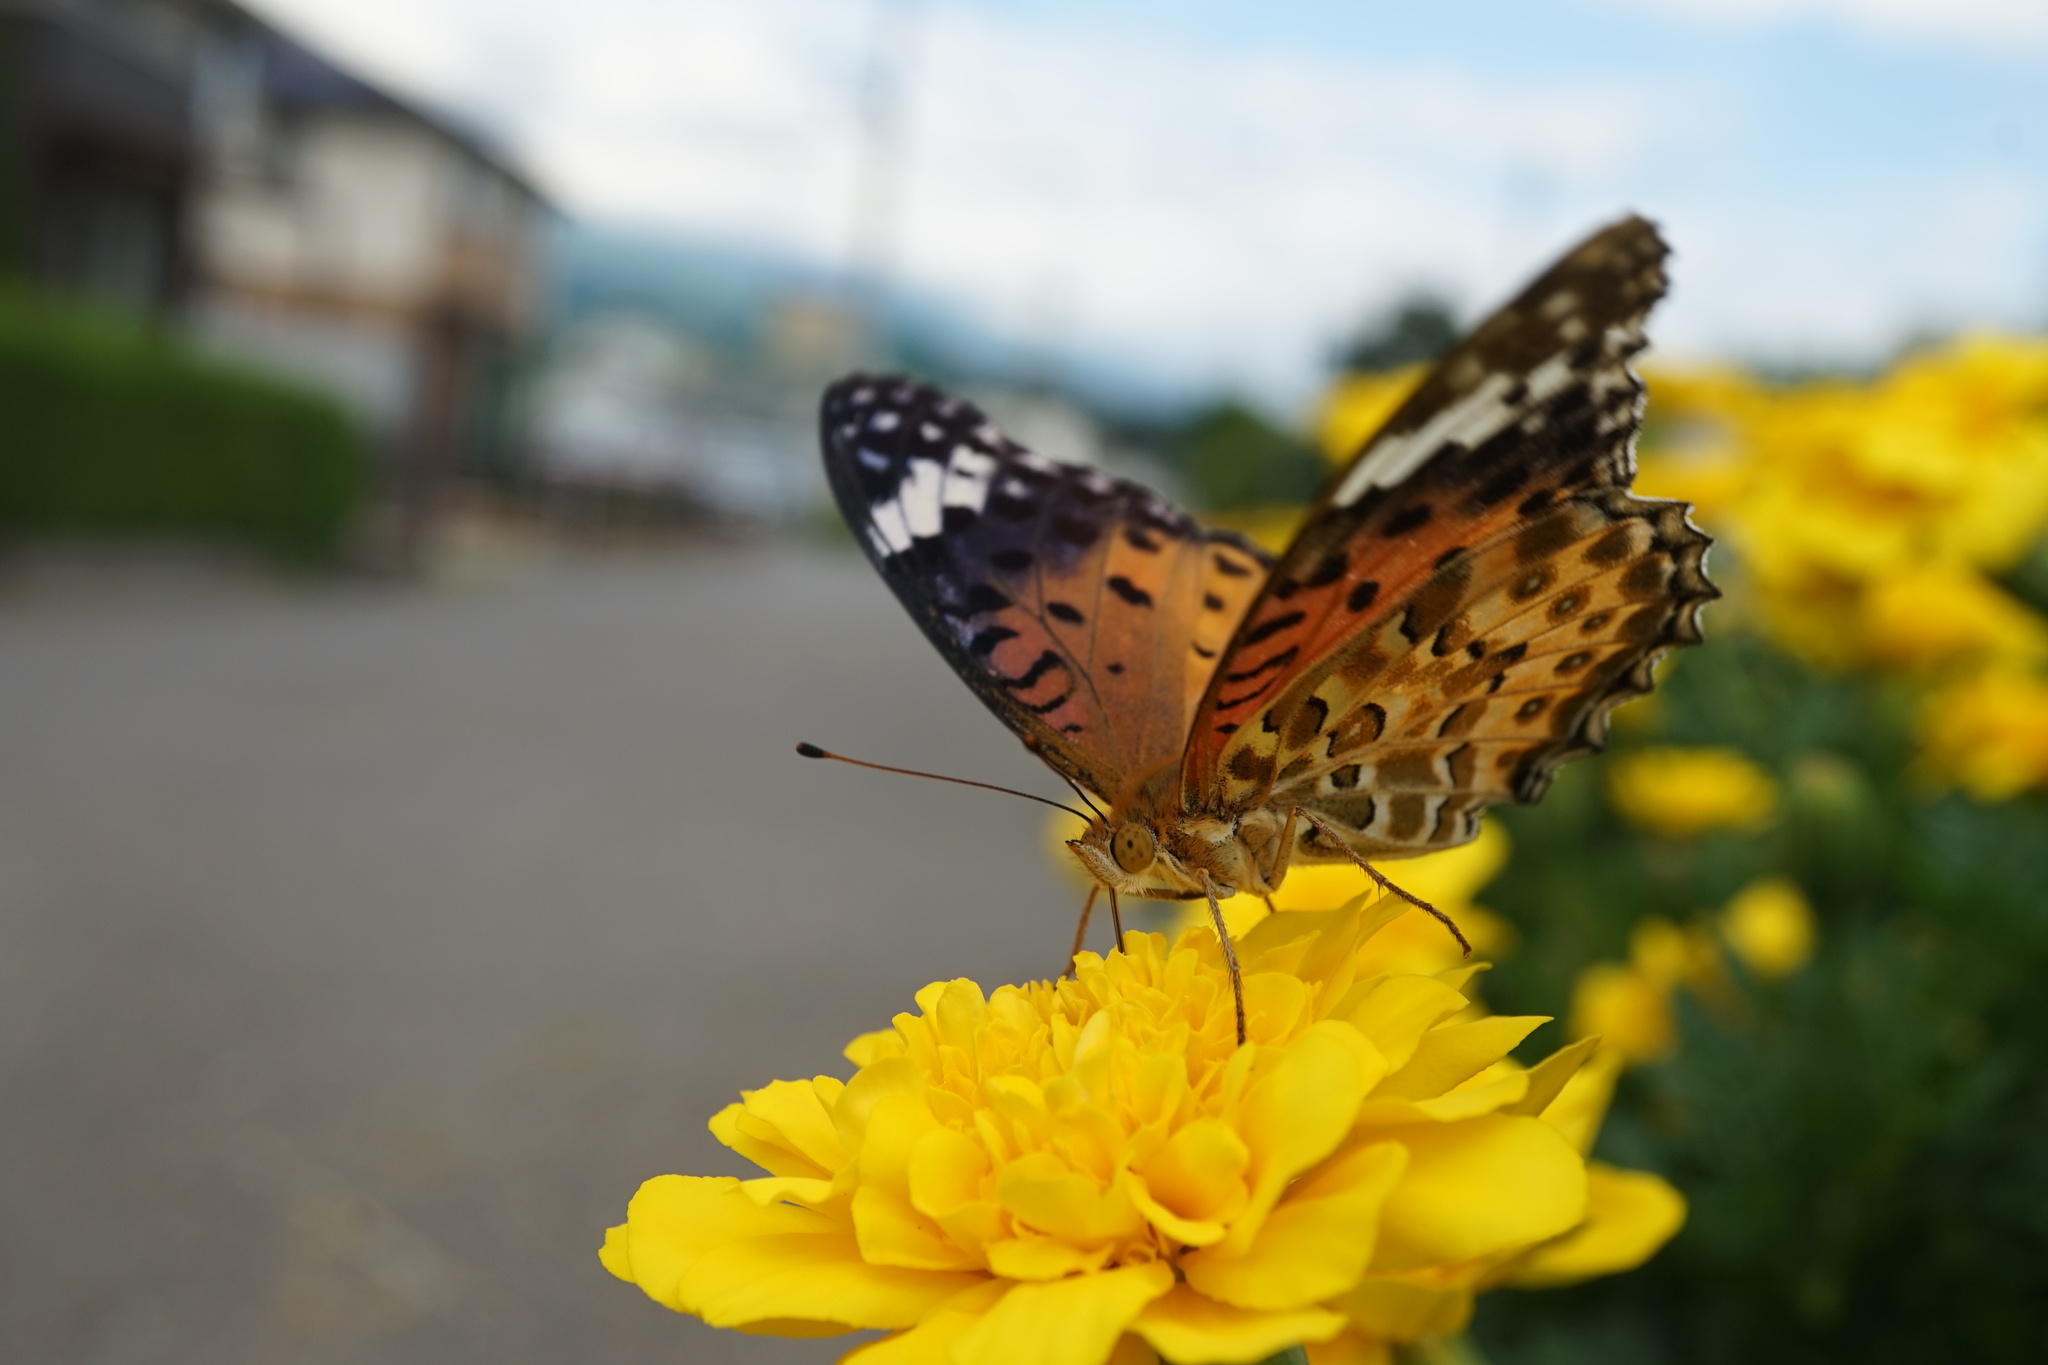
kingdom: Animalia
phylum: Arthropoda
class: Insecta
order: Lepidoptera
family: Nymphalidae
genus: Argynnis
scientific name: Argynnis hyperbius
